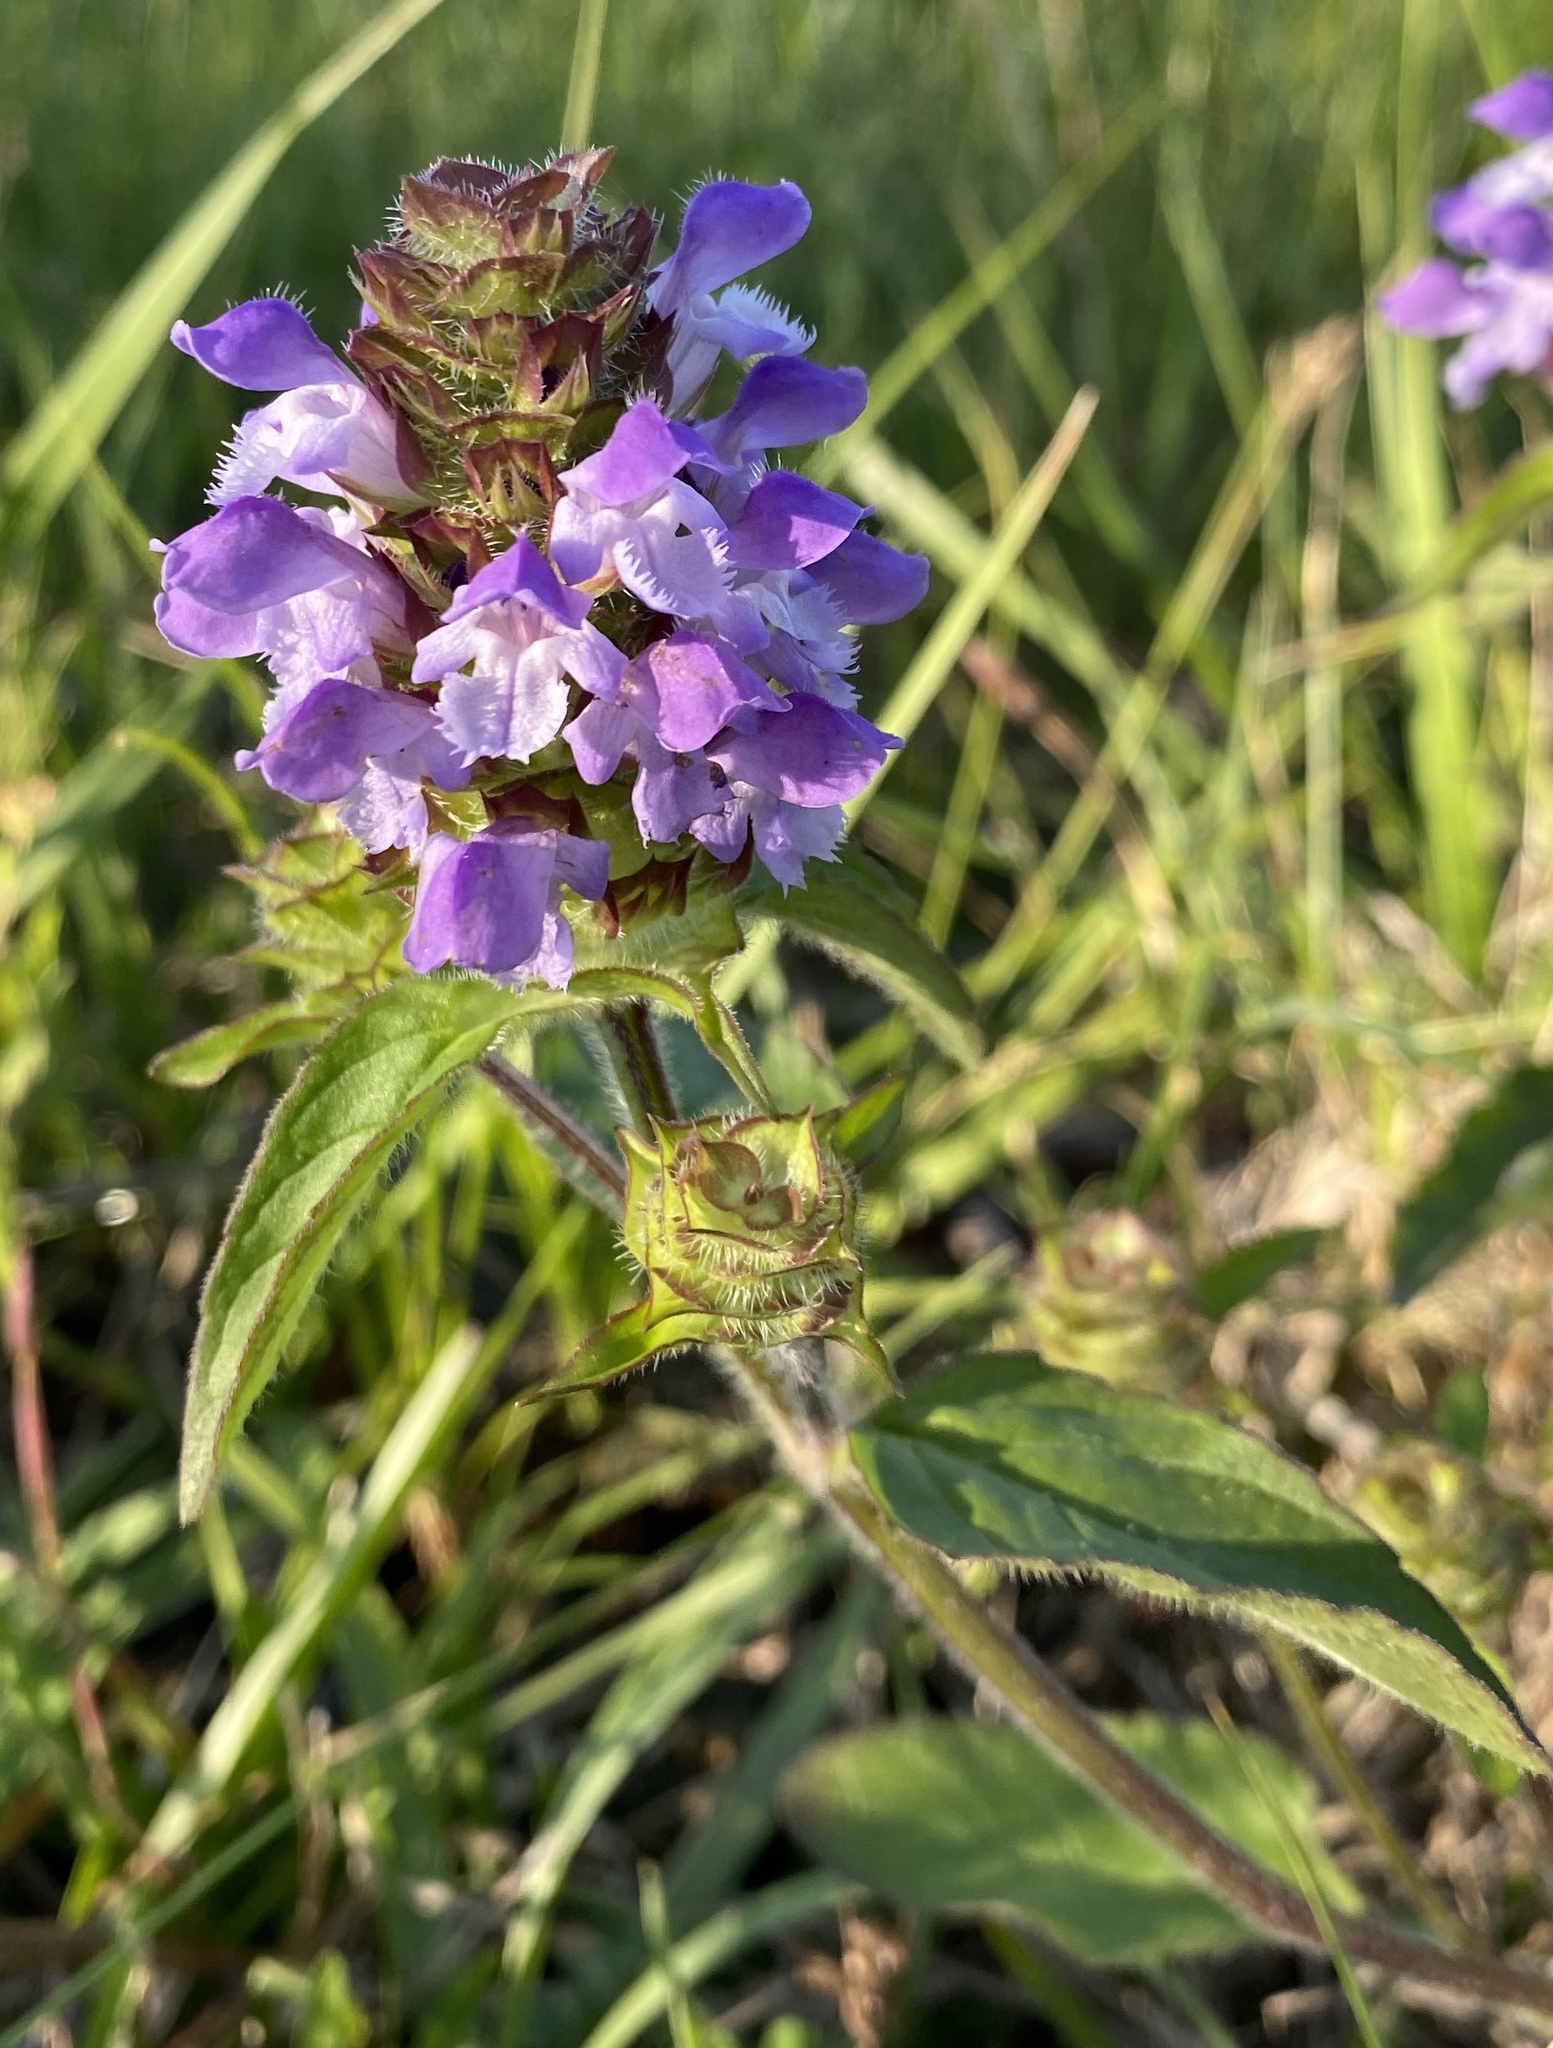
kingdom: Plantae
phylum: Tracheophyta
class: Magnoliopsida
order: Lamiales
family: Lamiaceae
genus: Prunella
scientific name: Prunella vulgaris
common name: Heal-all
